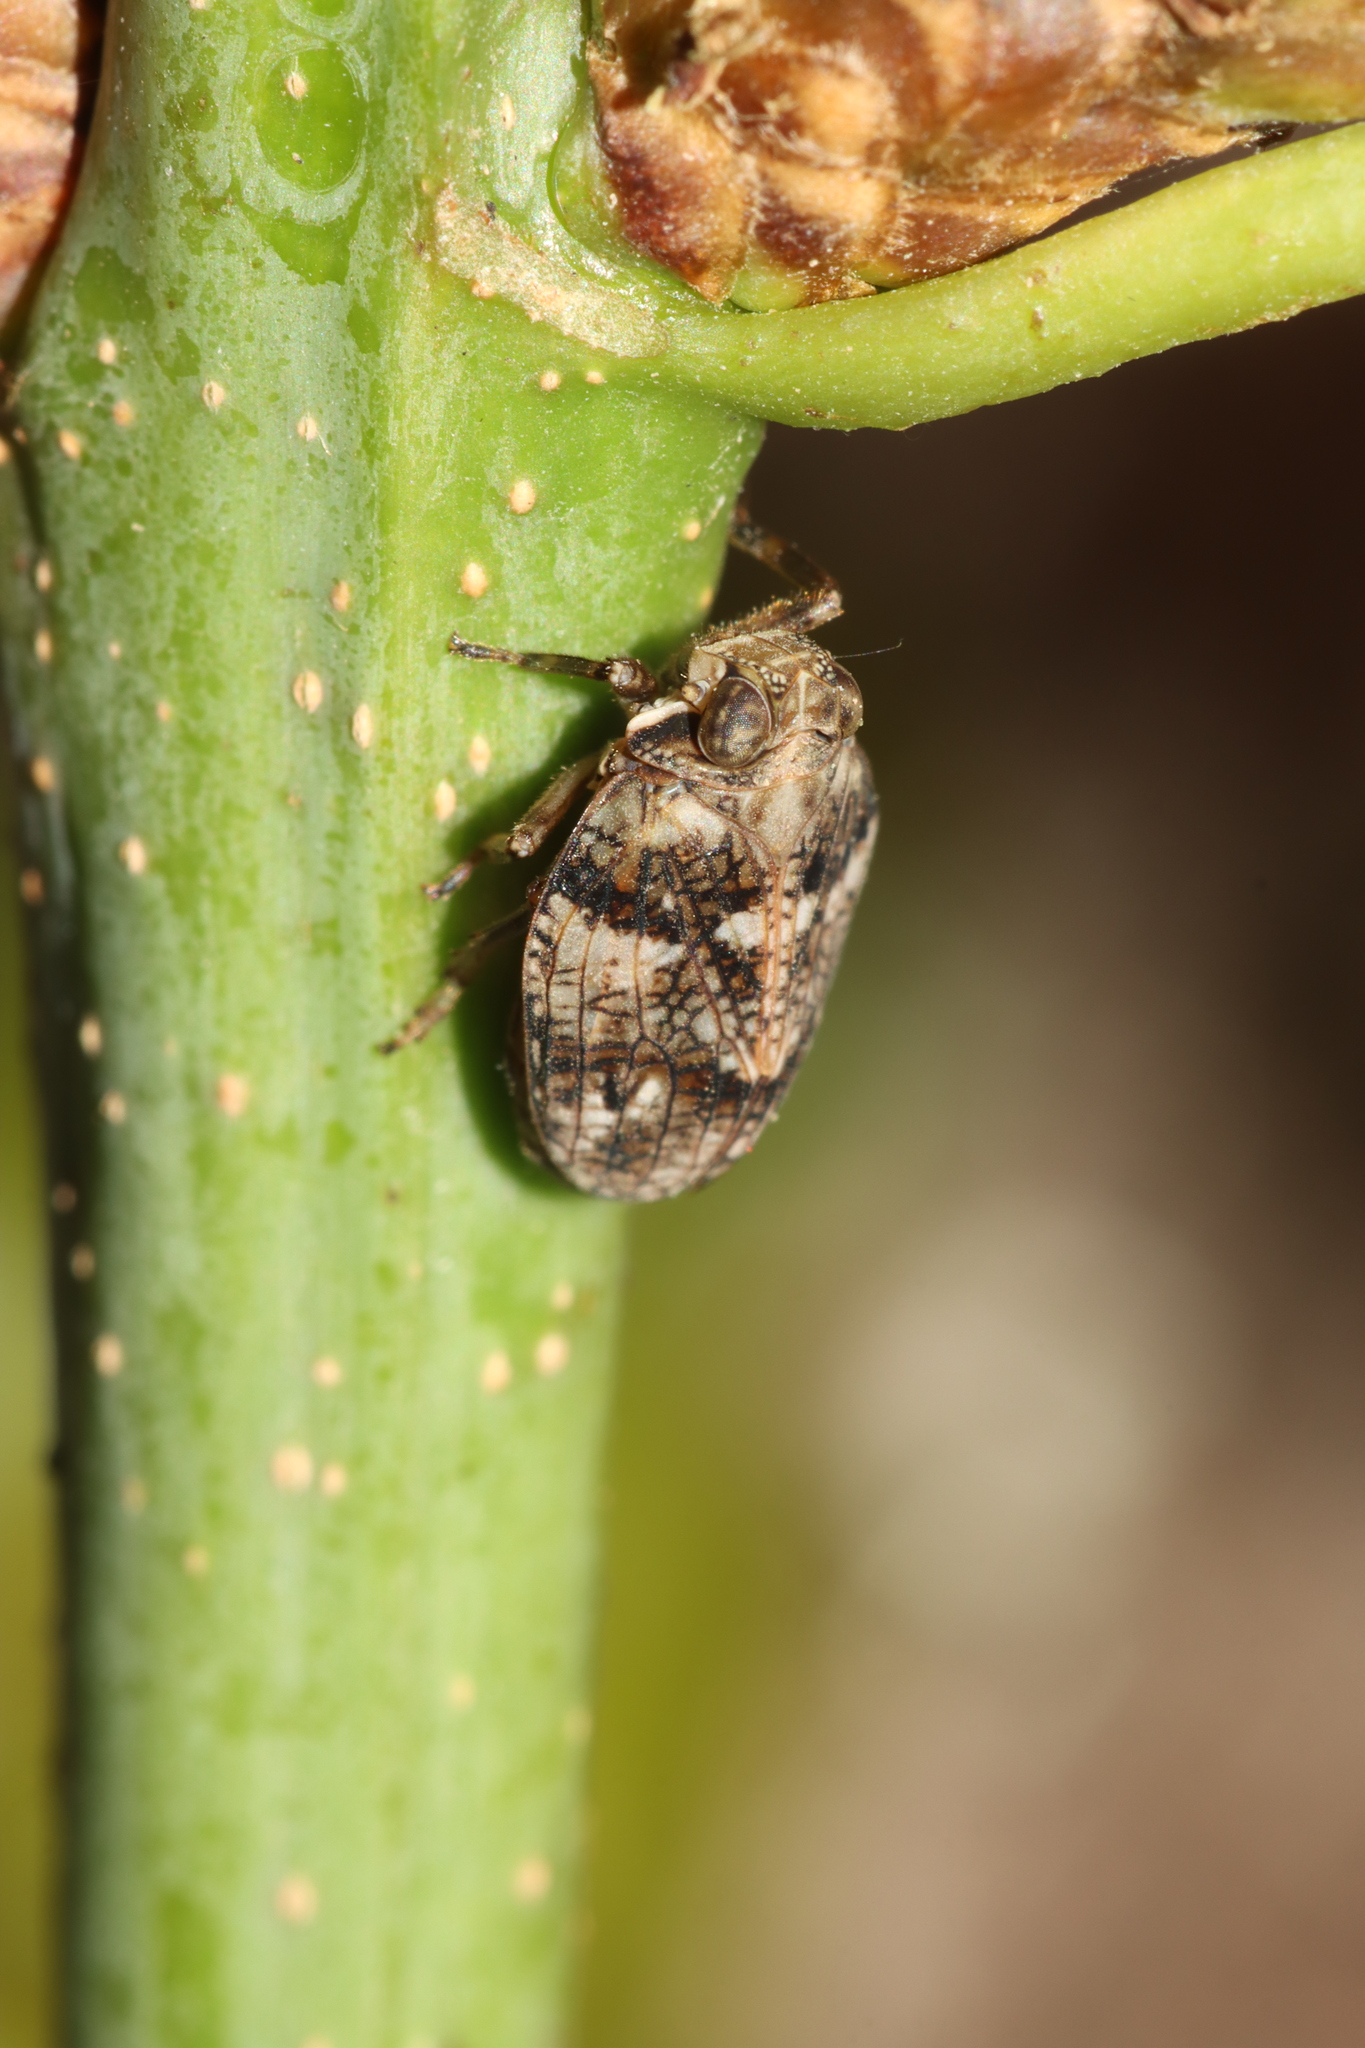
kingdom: Animalia
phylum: Arthropoda
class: Insecta
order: Hemiptera
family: Issidae
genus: Issus
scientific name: Issus muscaeformis
